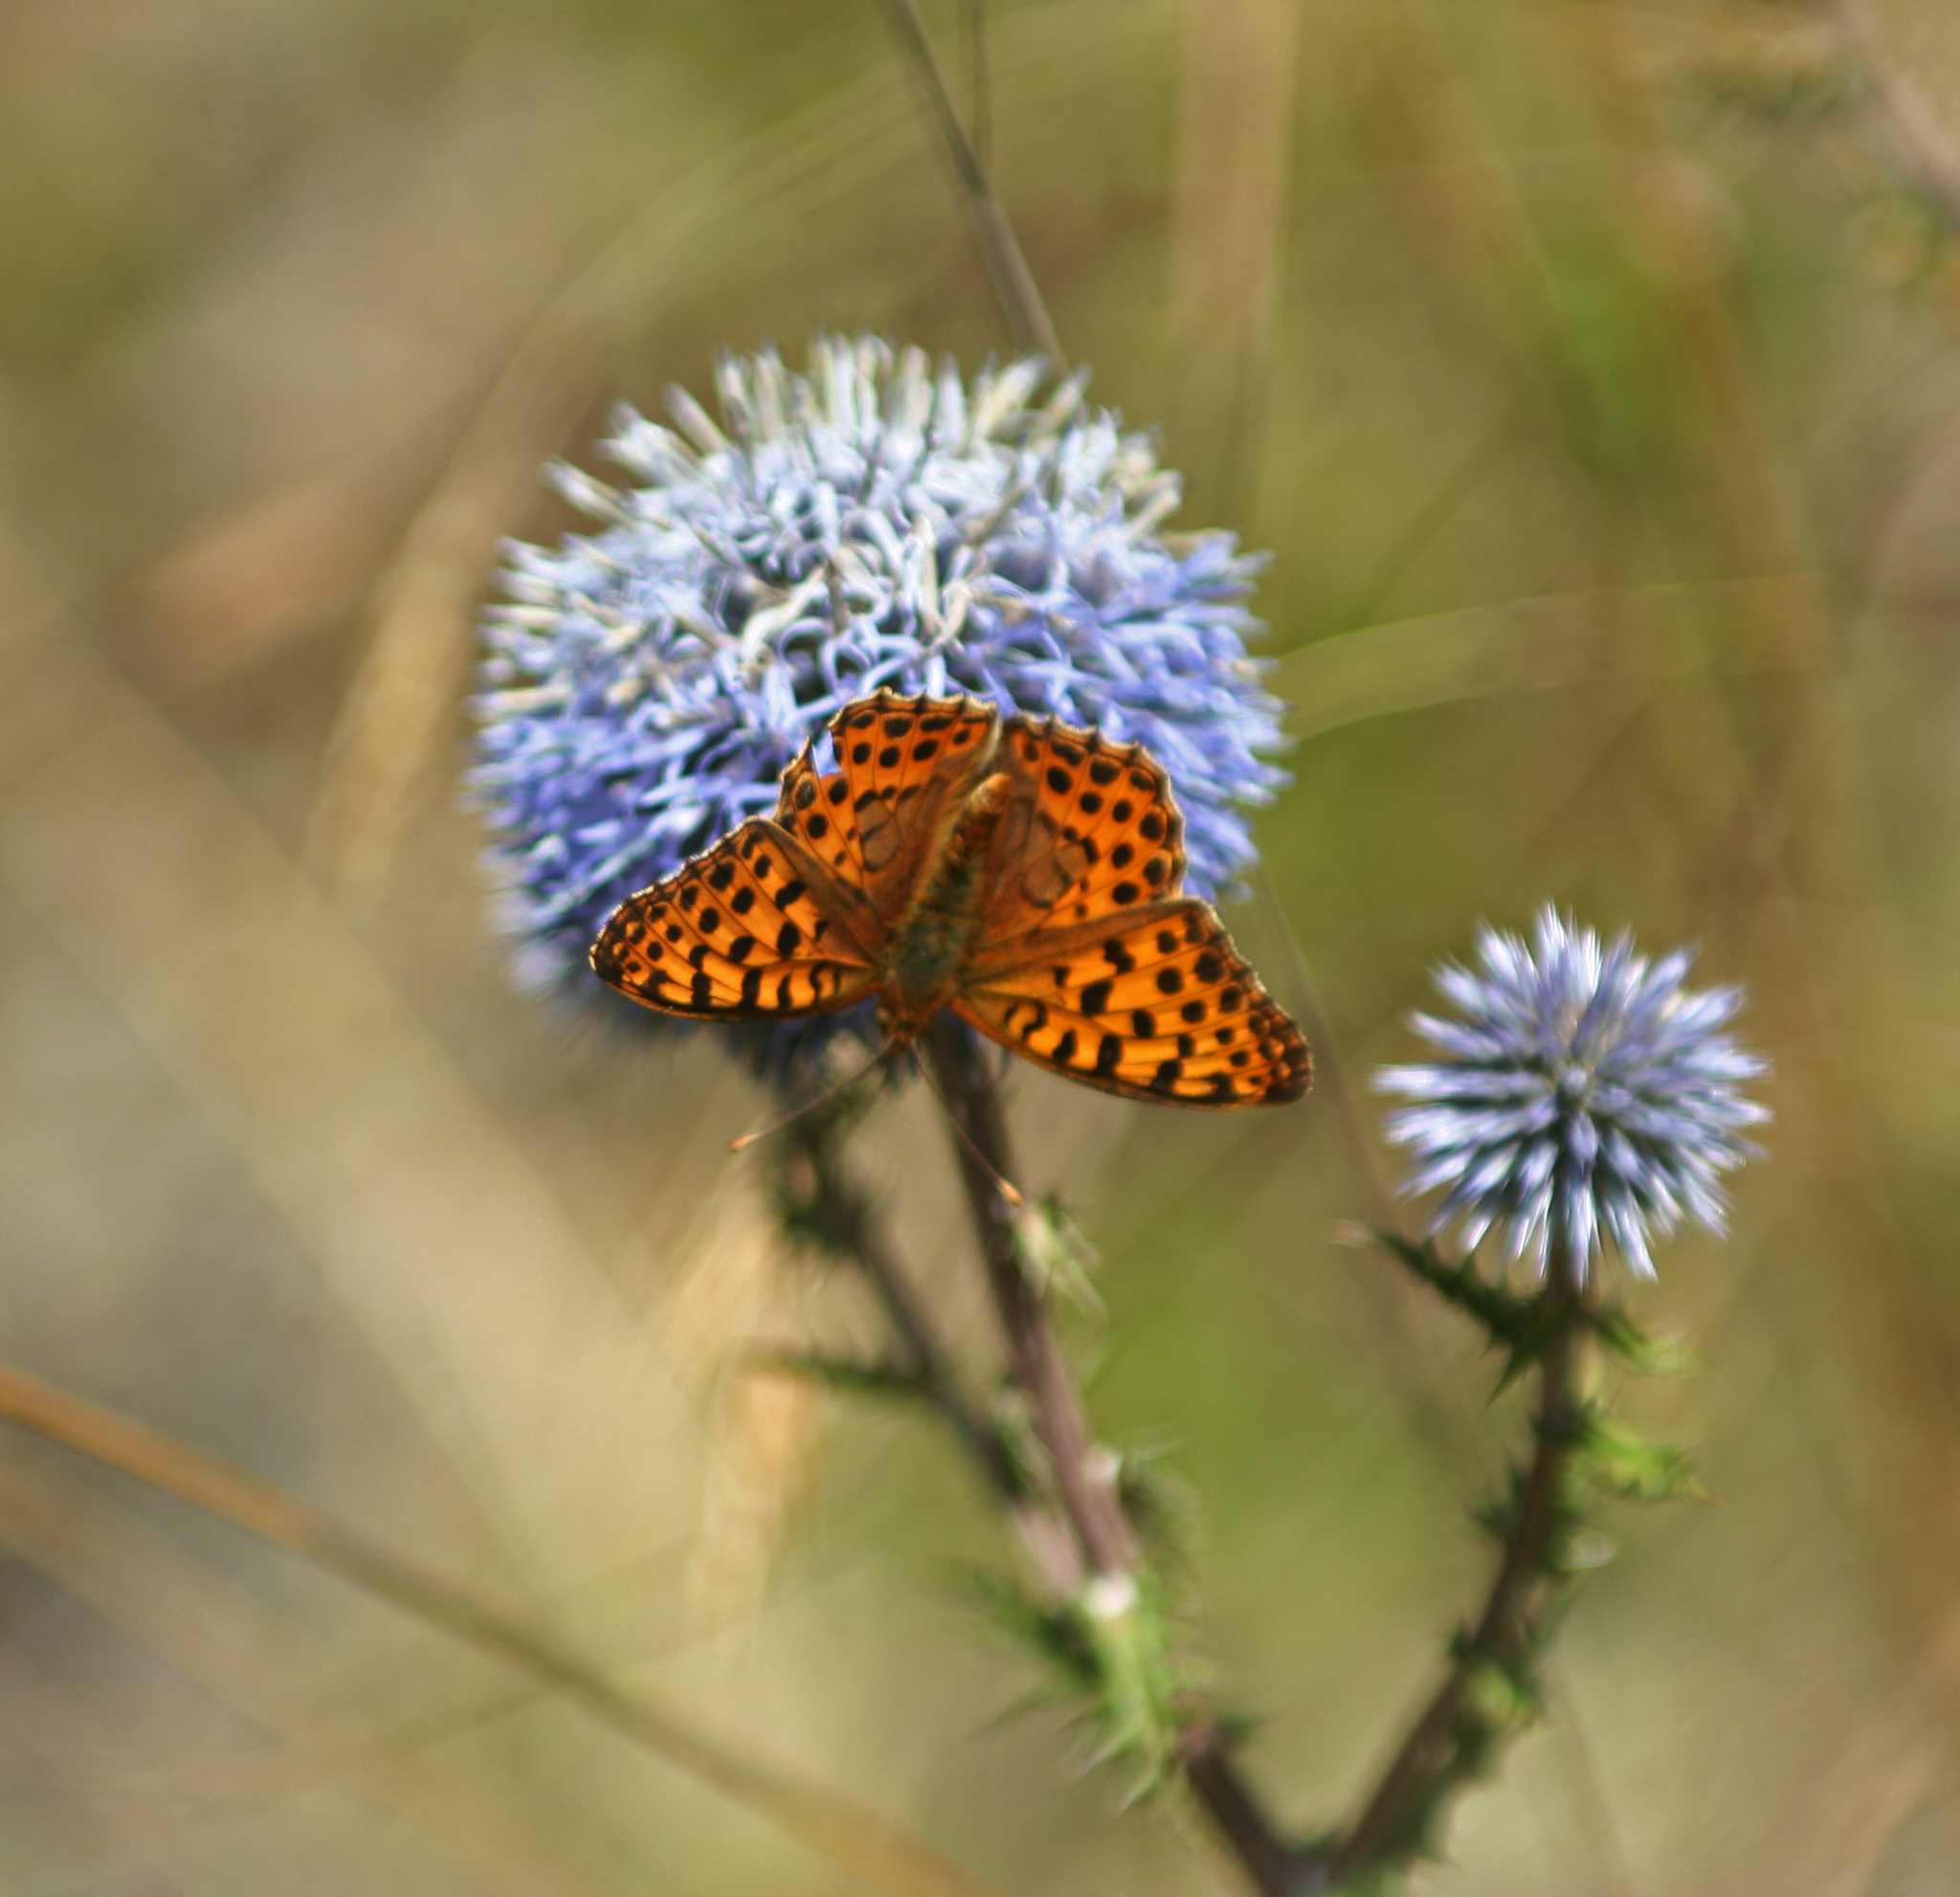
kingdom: Animalia
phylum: Arthropoda
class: Insecta
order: Lepidoptera
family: Nymphalidae
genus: Issoria
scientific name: Issoria lathonia
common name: Queen of spain fritillary
